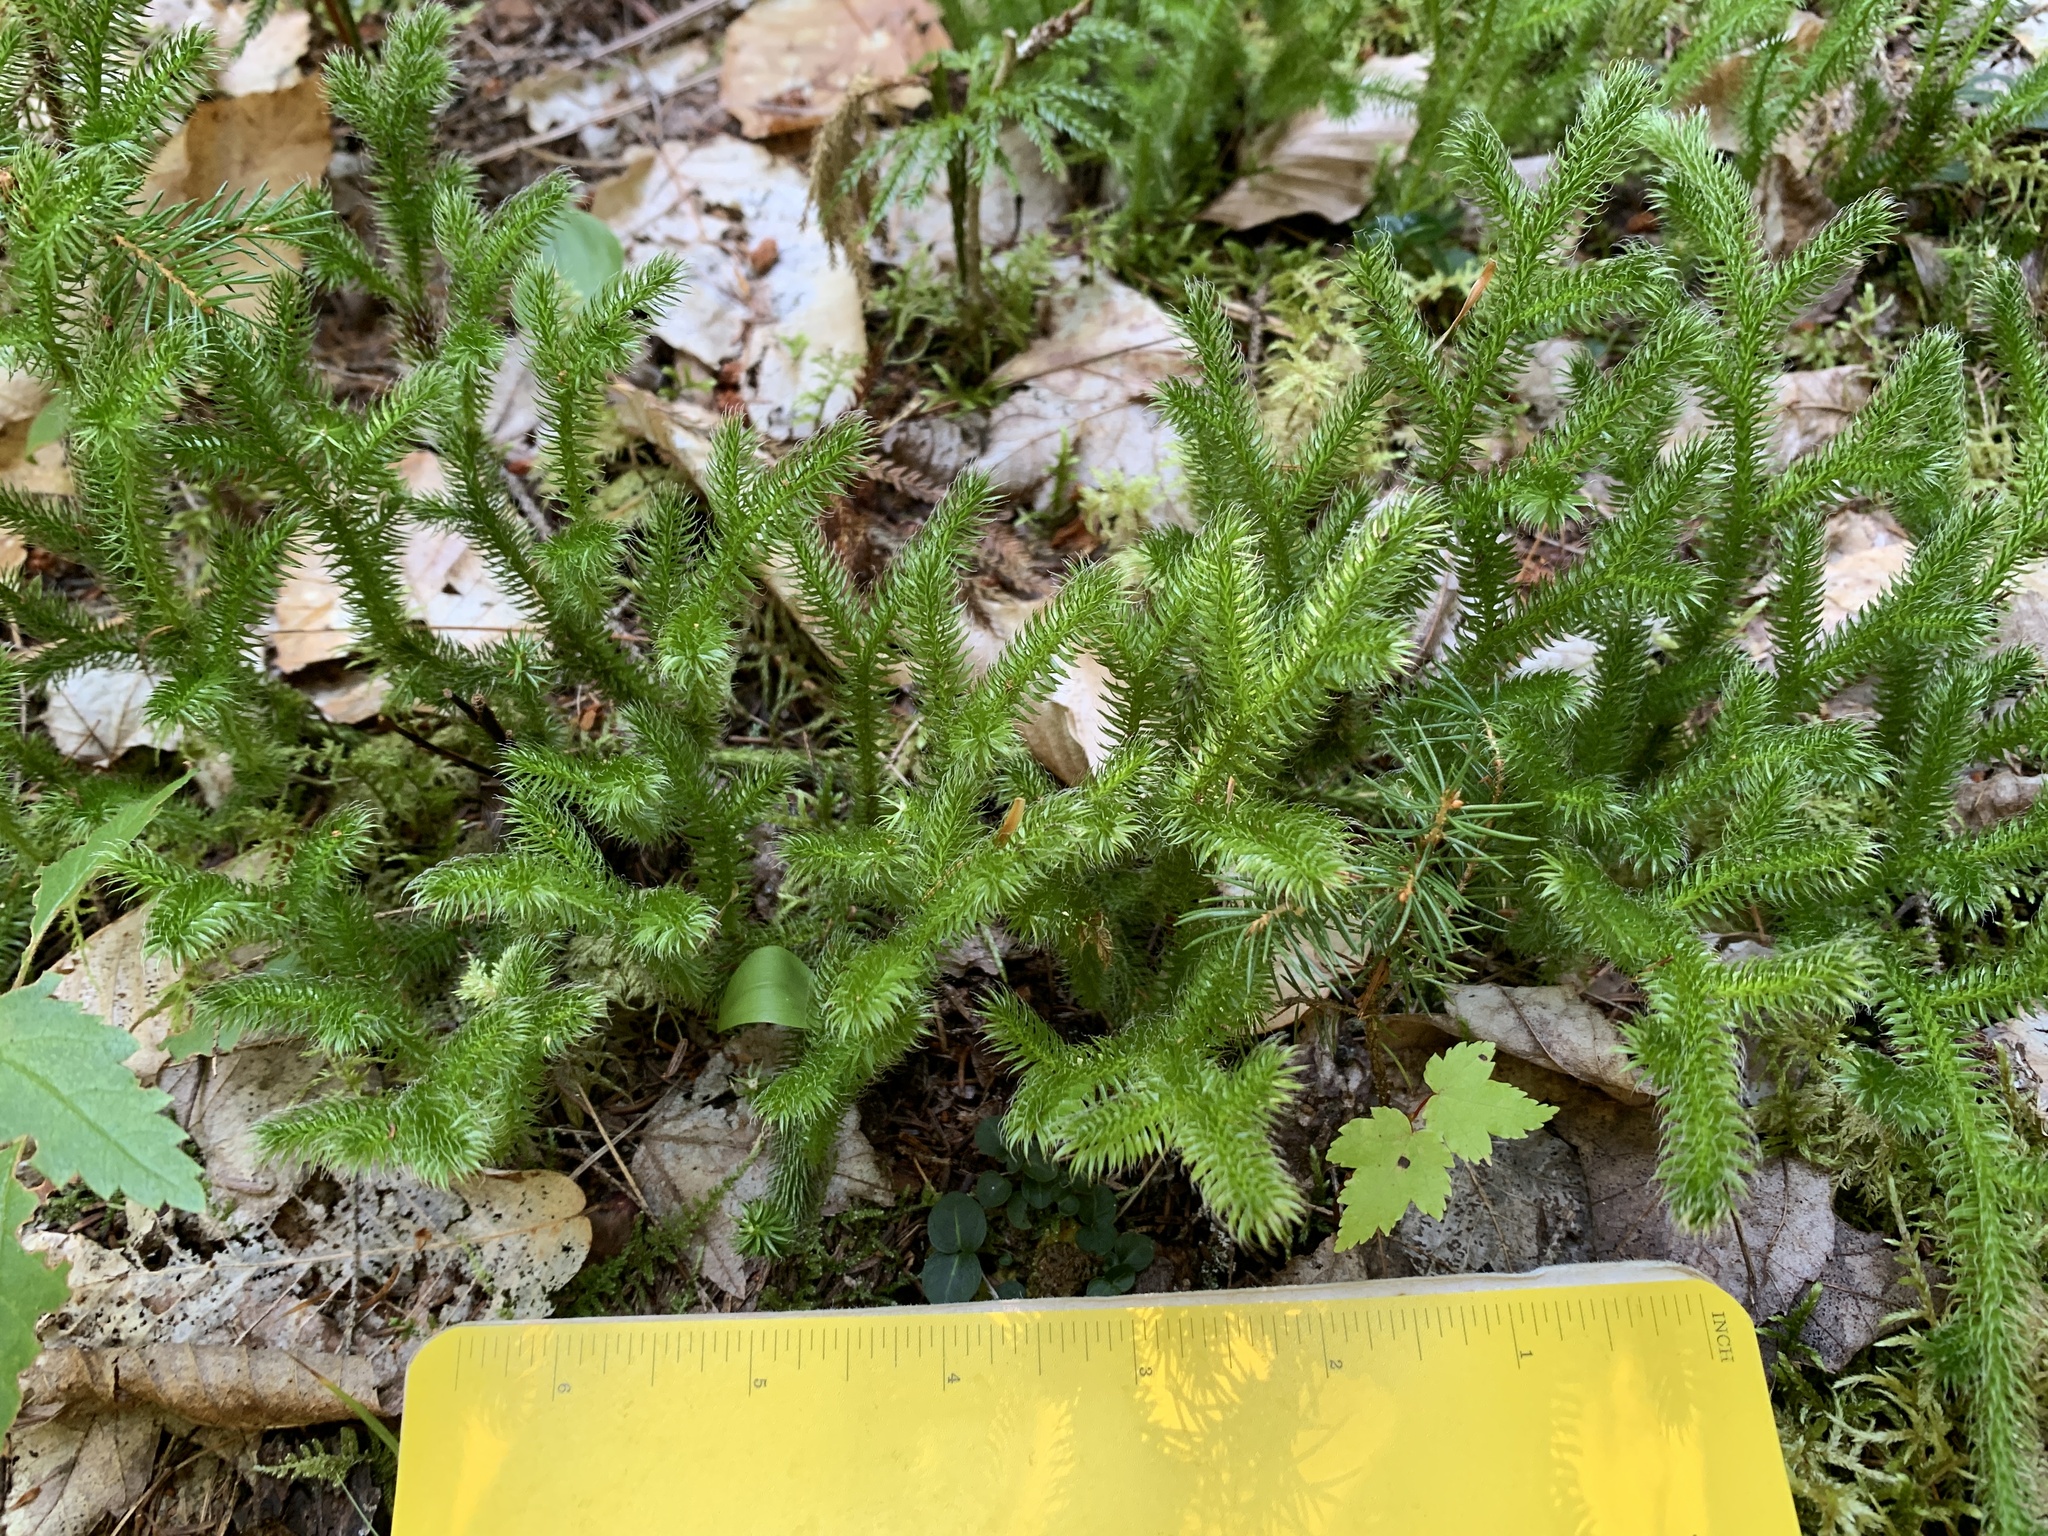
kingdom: Plantae
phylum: Tracheophyta
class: Lycopodiopsida
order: Lycopodiales
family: Lycopodiaceae
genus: Lycopodium
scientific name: Lycopodium clavatum
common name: Stag's-horn clubmoss
